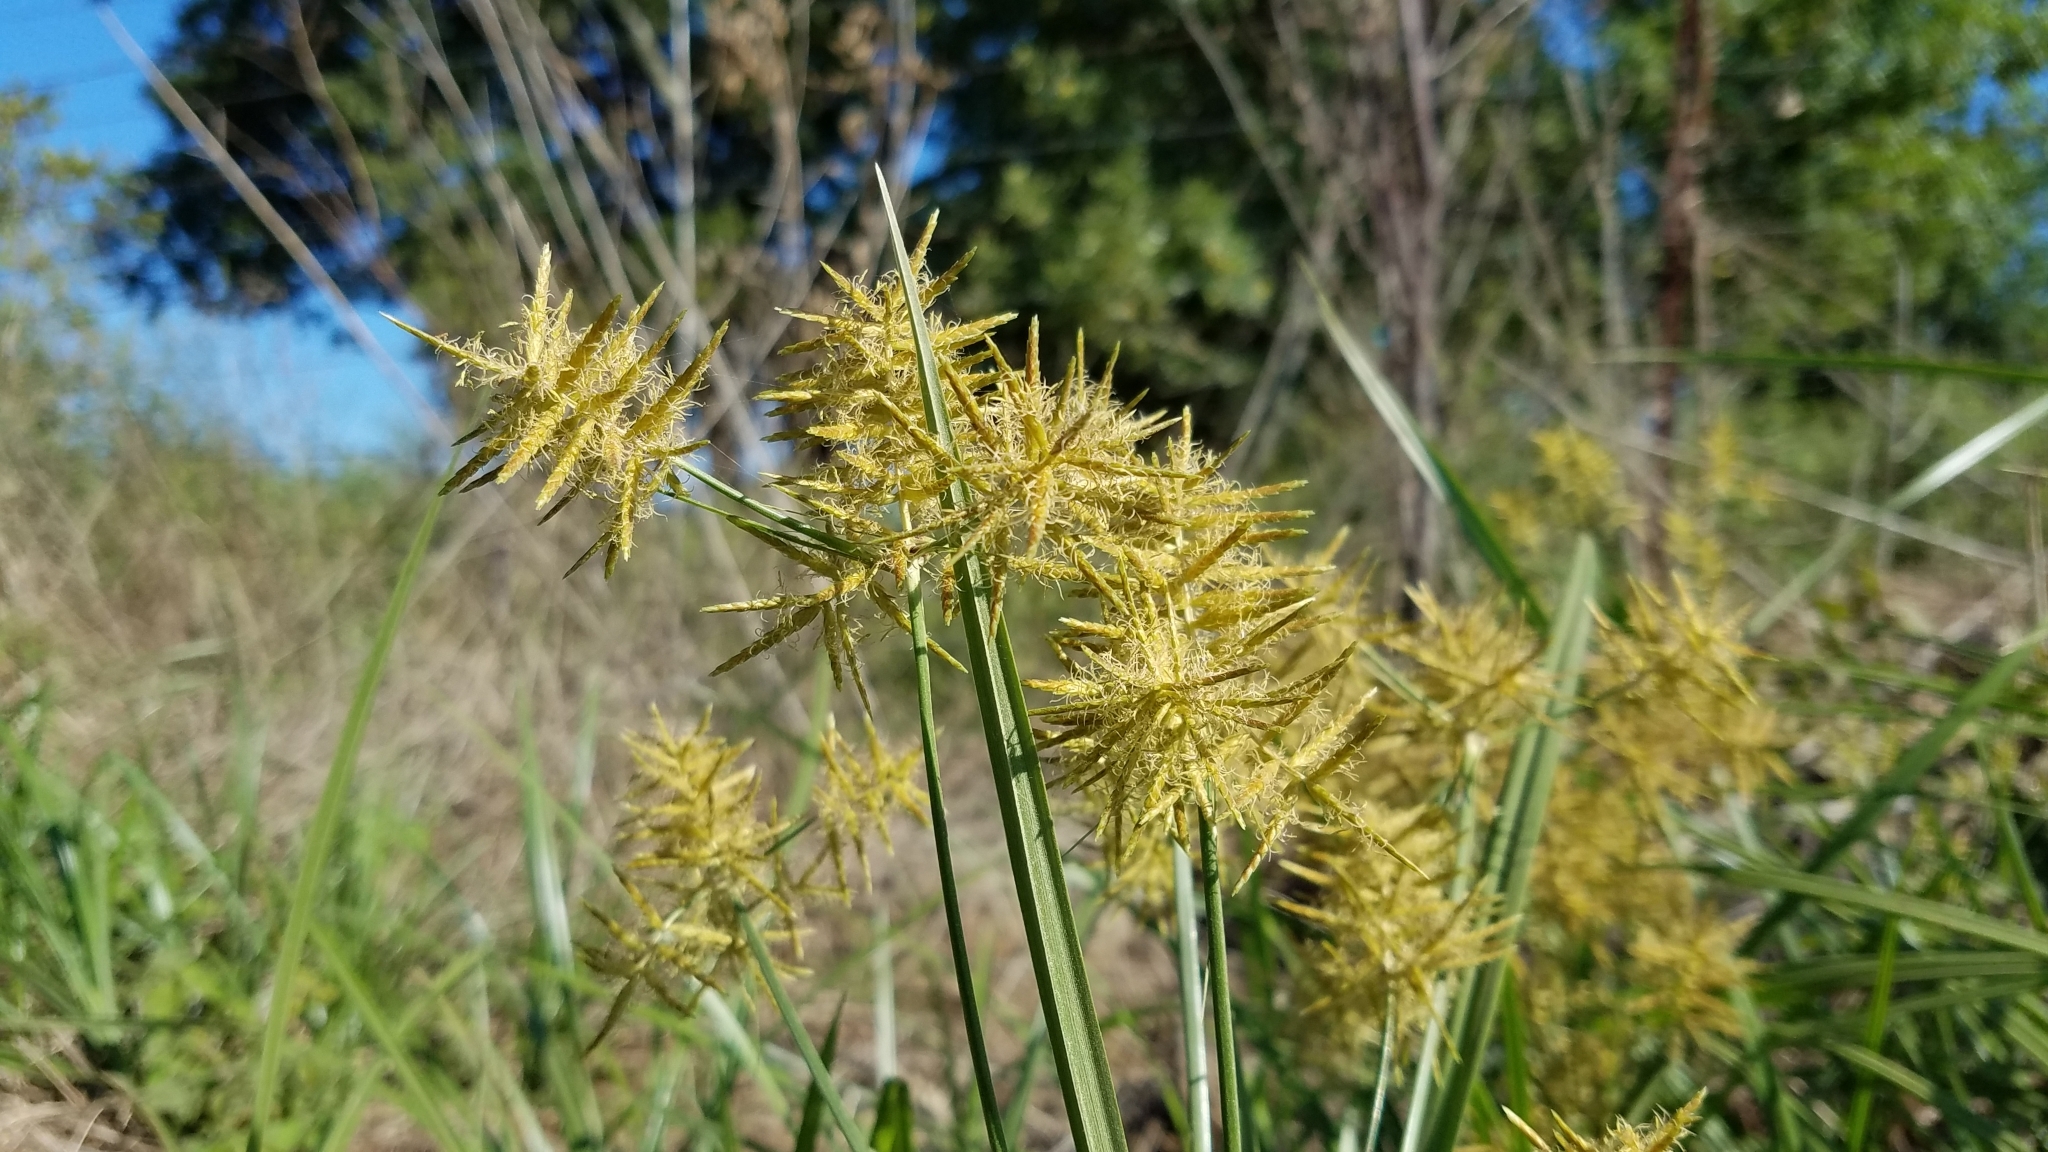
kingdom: Plantae
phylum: Tracheophyta
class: Liliopsida
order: Poales
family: Cyperaceae
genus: Cyperus
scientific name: Cyperus esculentus
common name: Yellow nutsedge
